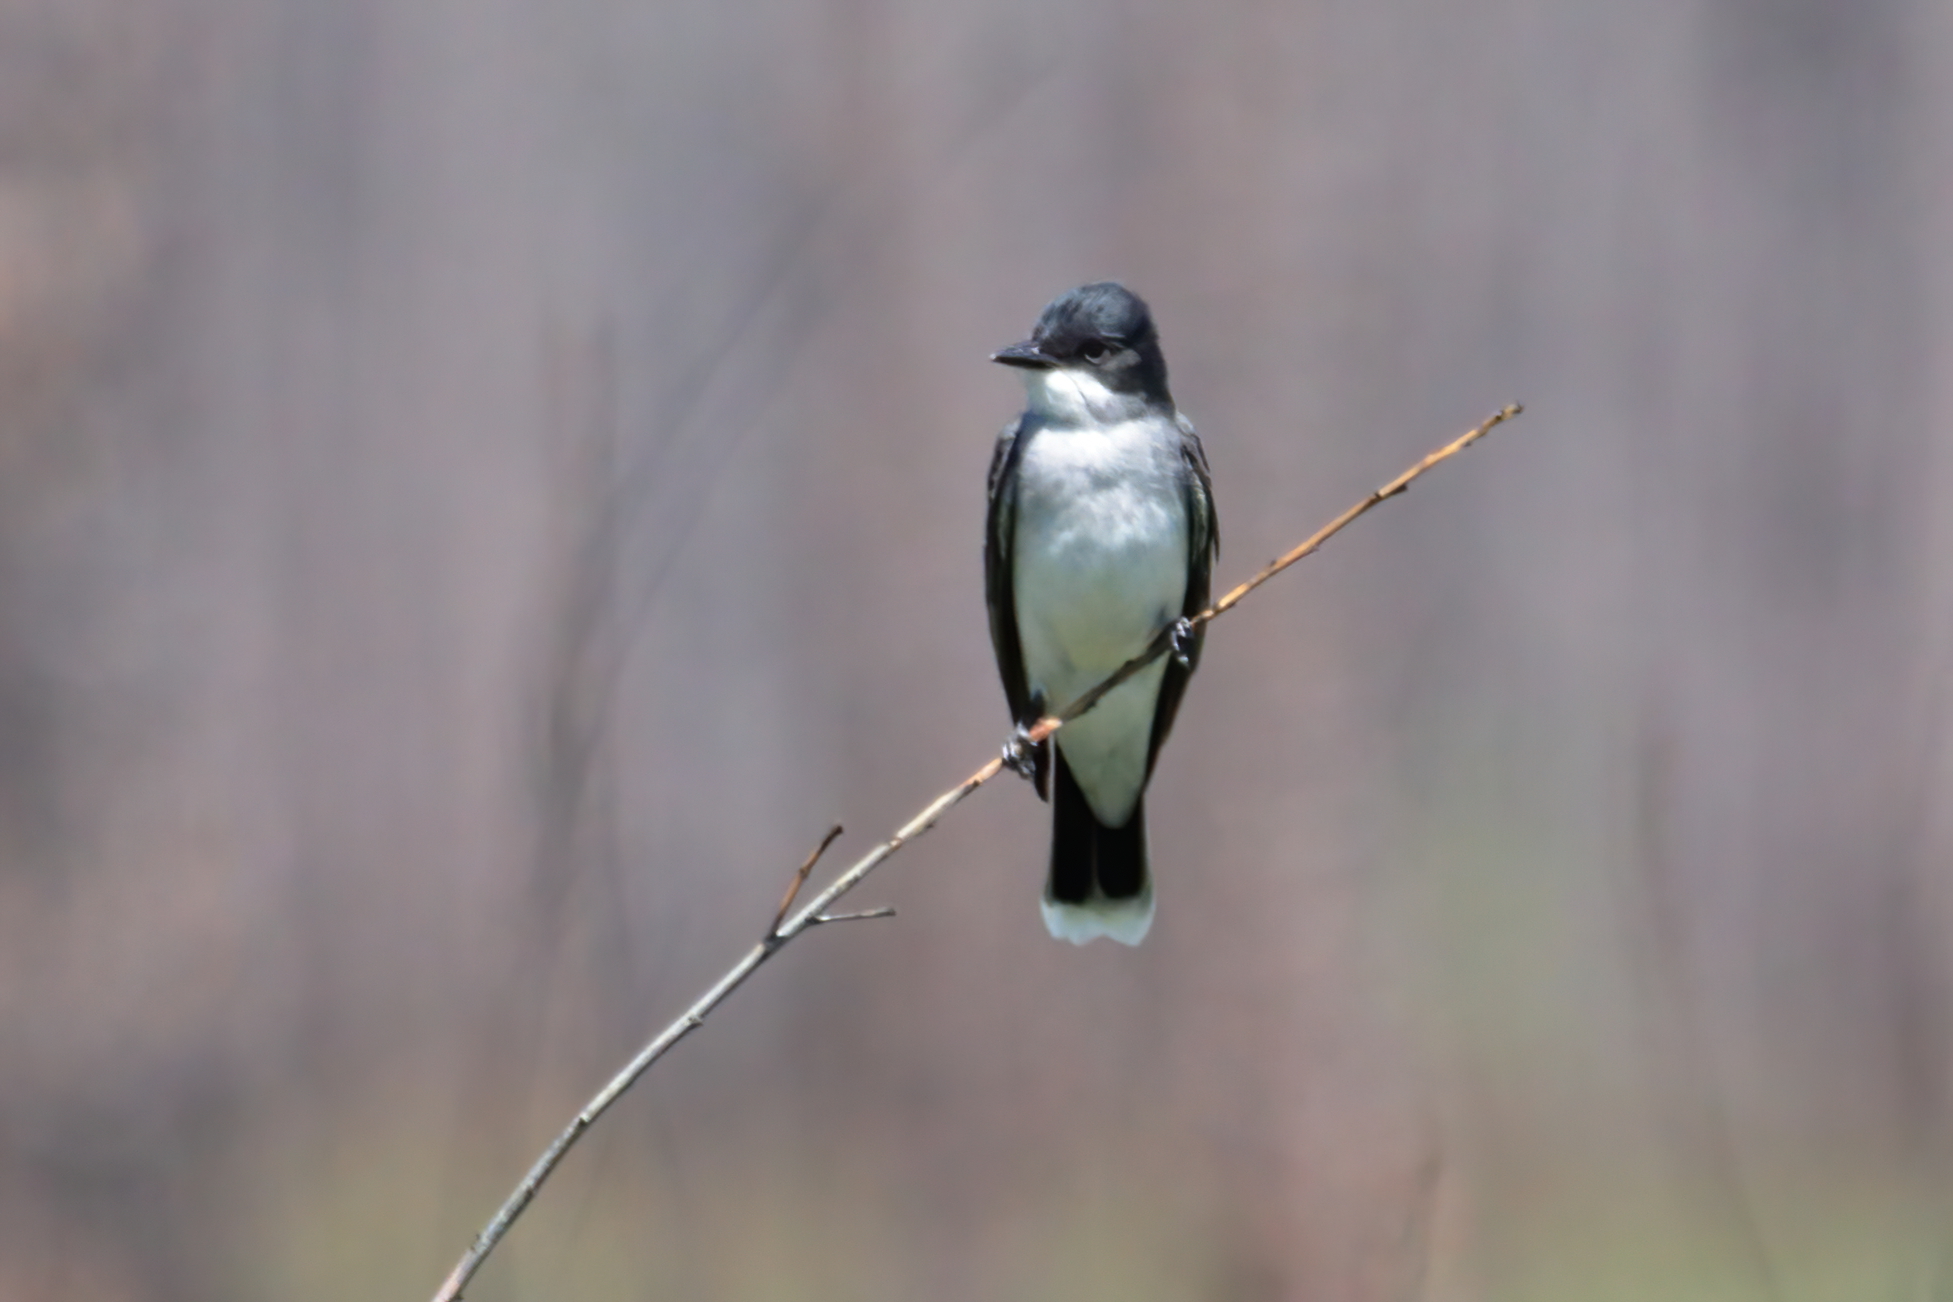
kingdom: Animalia
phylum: Chordata
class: Aves
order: Passeriformes
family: Tyrannidae
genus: Tyrannus
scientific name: Tyrannus tyrannus
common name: Eastern kingbird
